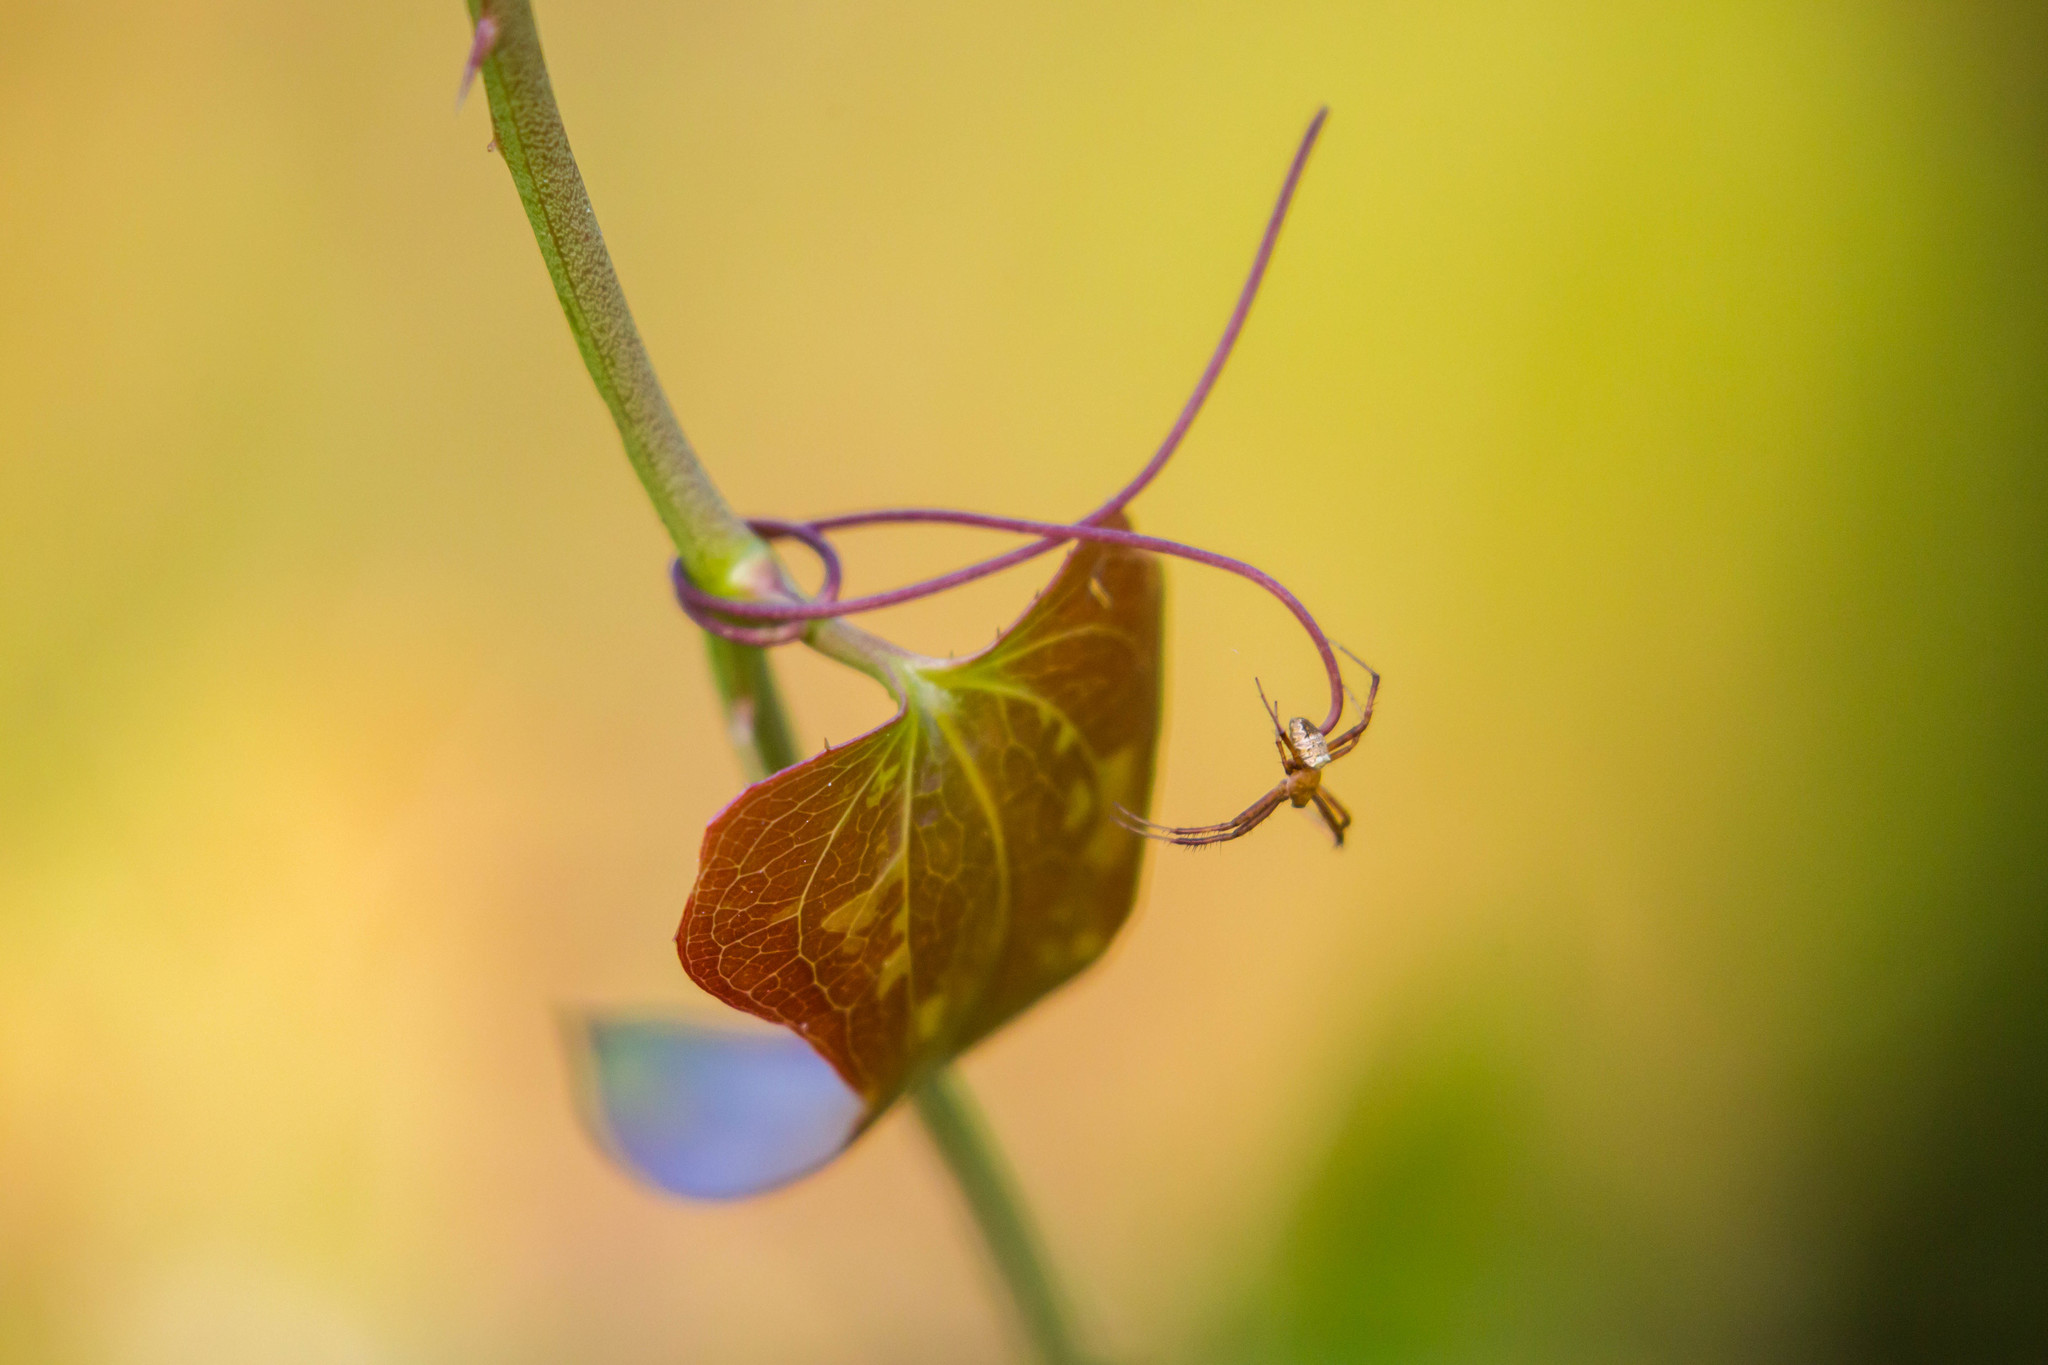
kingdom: Animalia
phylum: Arthropoda
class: Arachnida
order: Araneae
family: Araneidae
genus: Gea
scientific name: Gea heptagon
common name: Orb weavers
